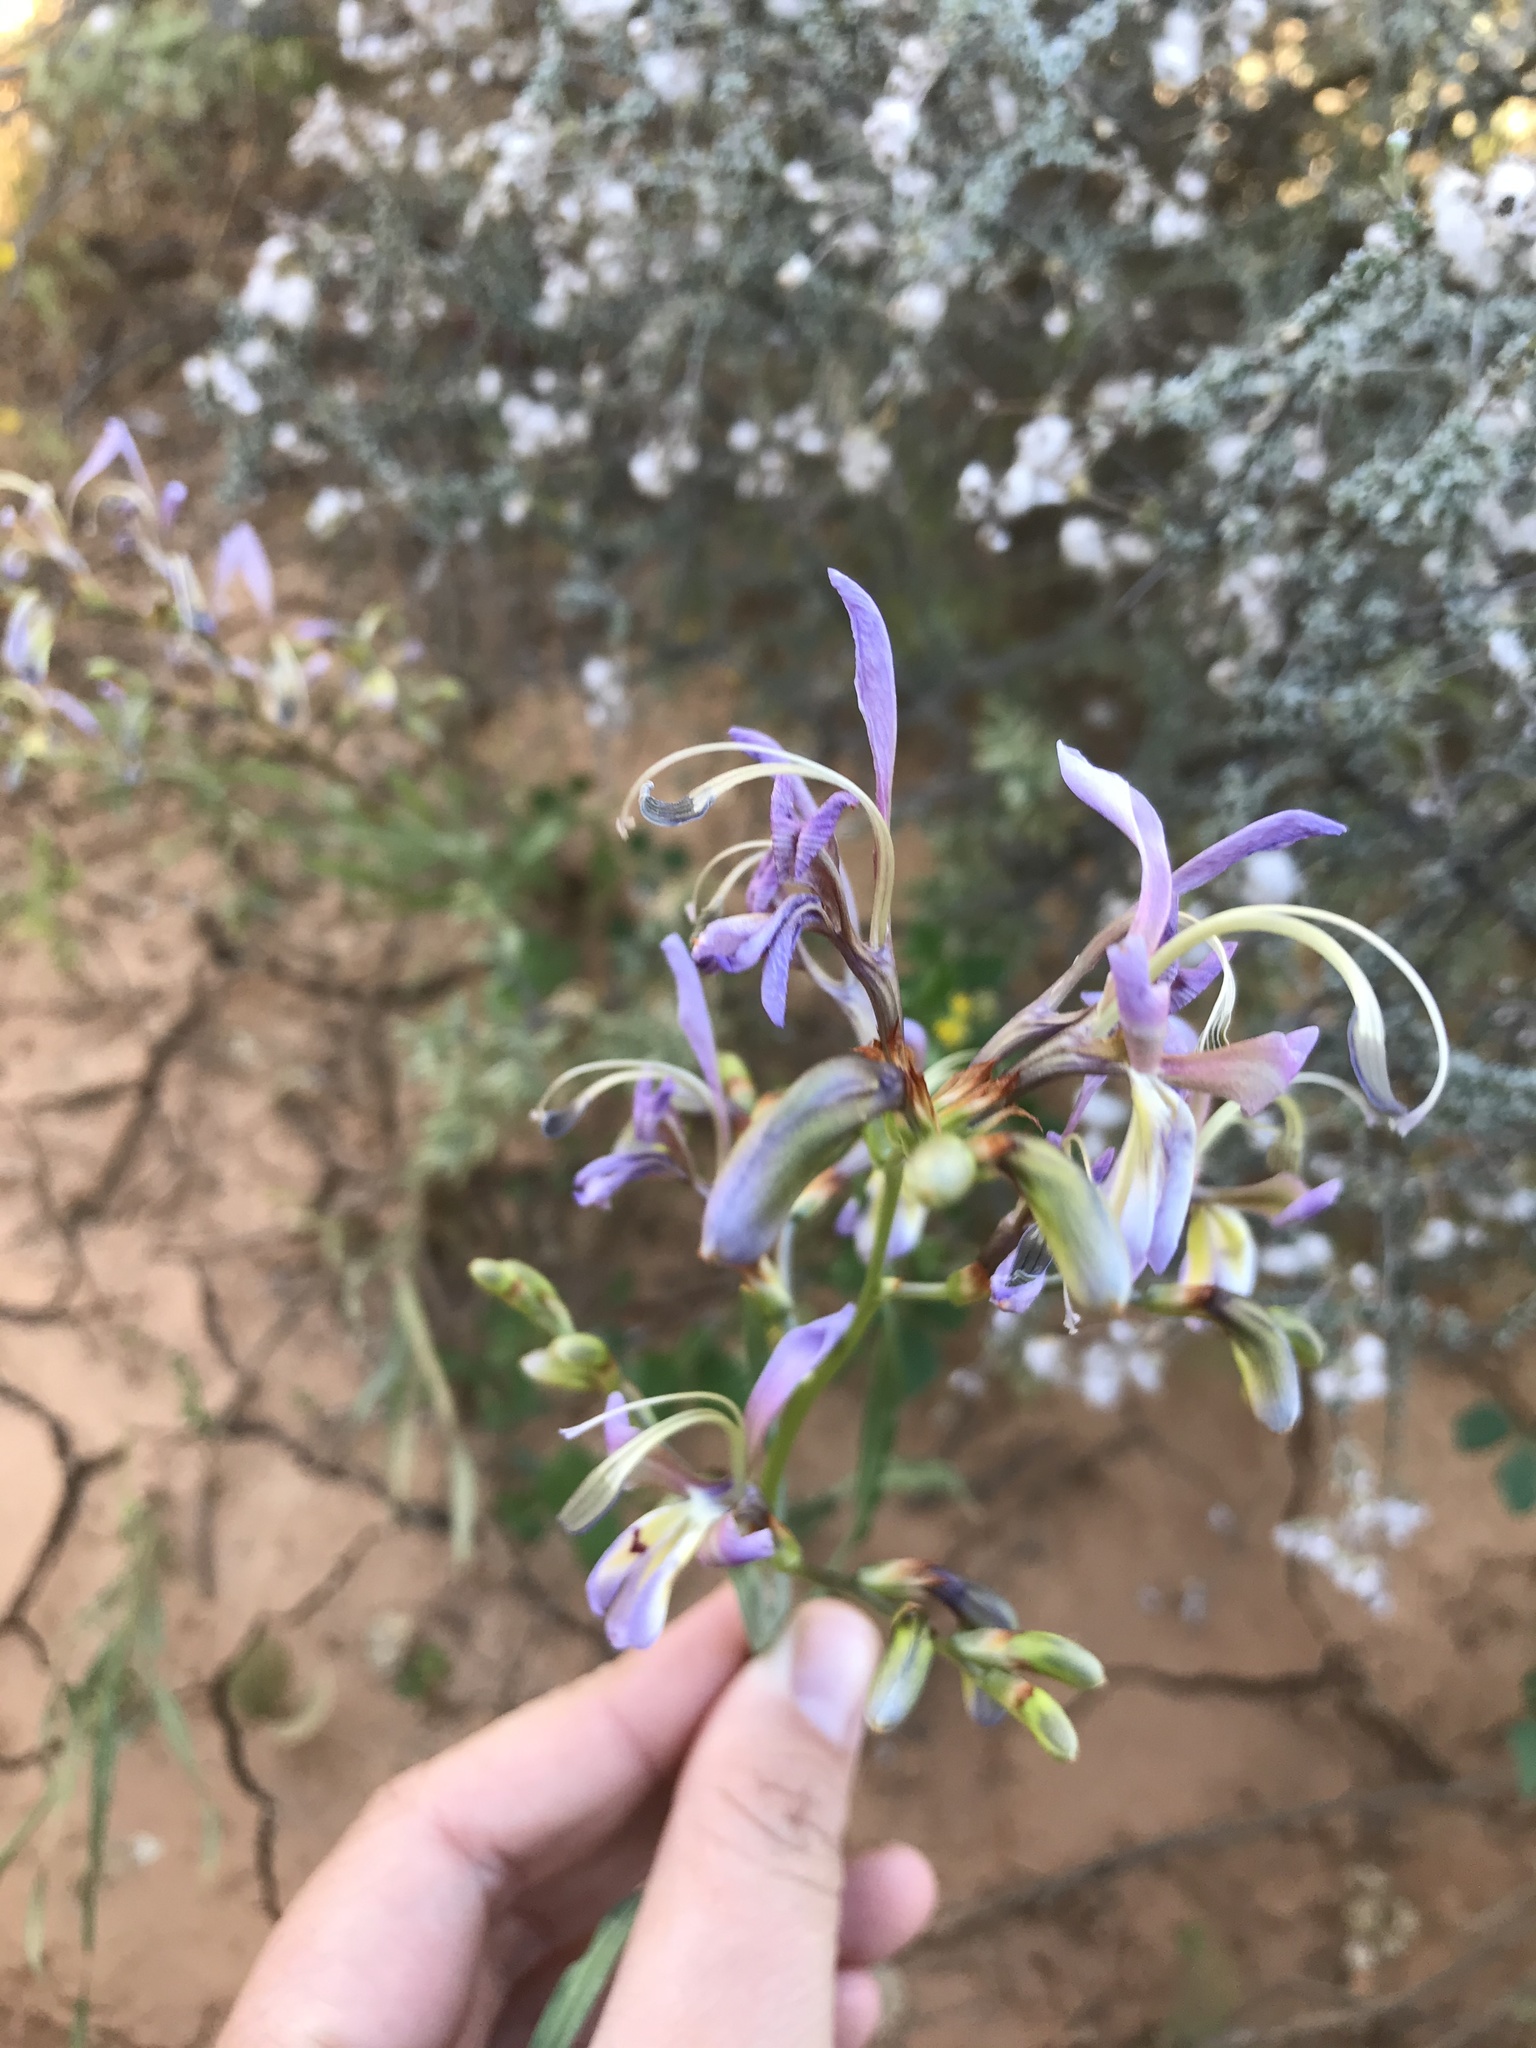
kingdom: Plantae
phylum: Tracheophyta
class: Liliopsida
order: Asparagales
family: Iridaceae
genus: Babiana
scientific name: Babiana sinuata
